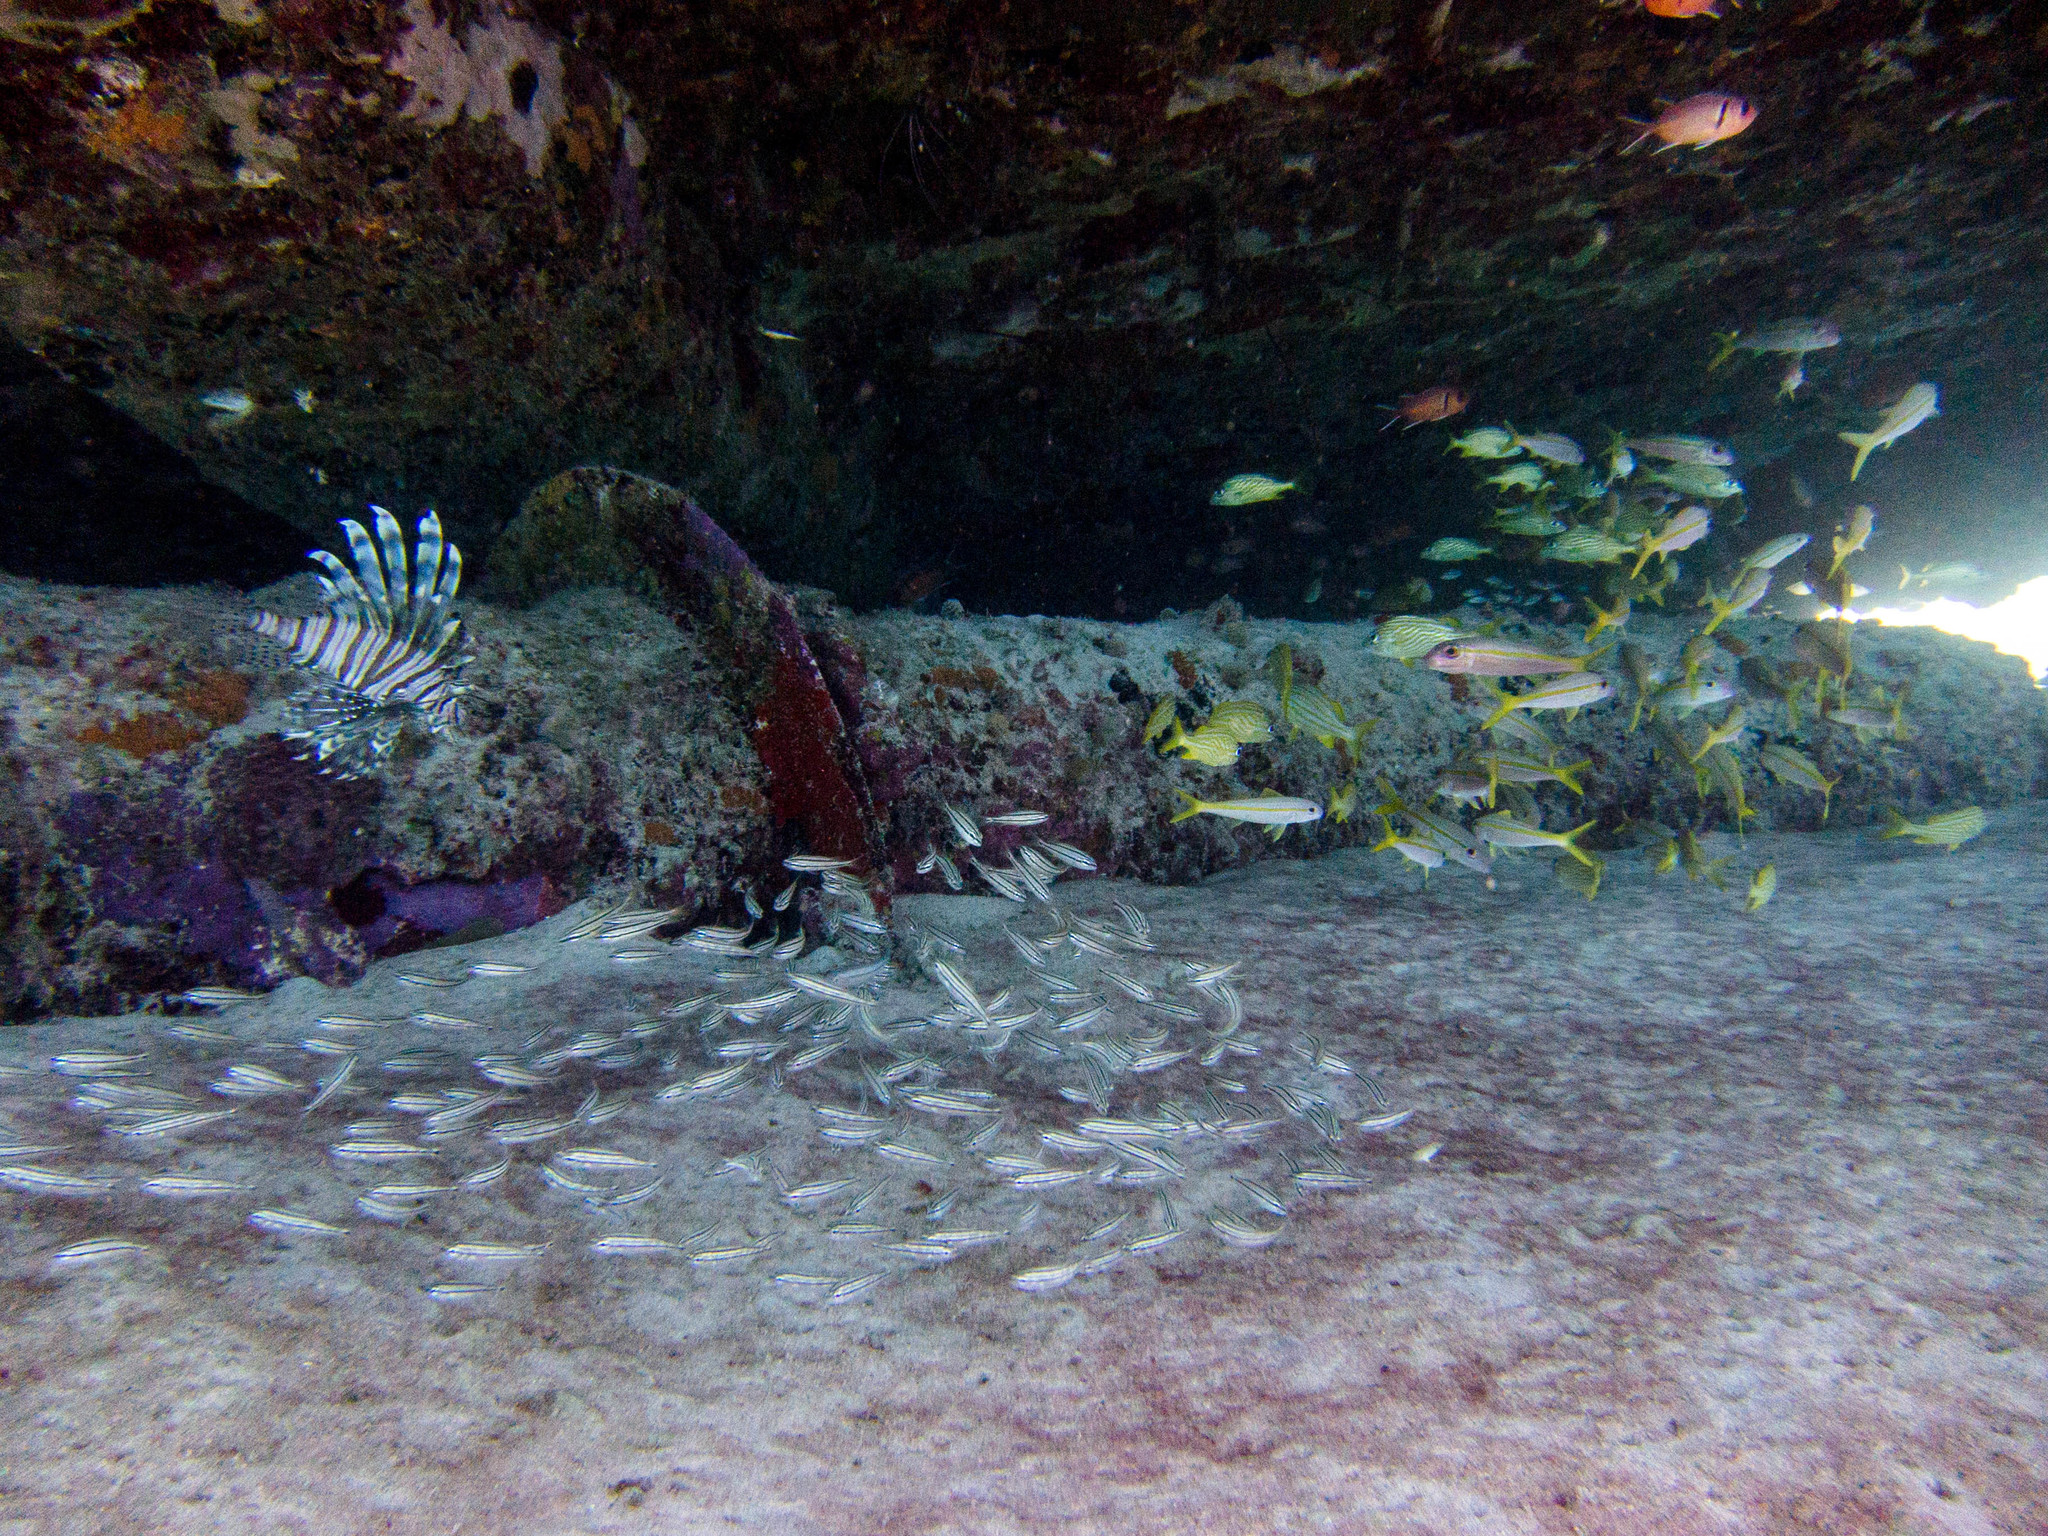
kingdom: Animalia
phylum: Chordata
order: Scorpaeniformes
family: Scorpaenidae
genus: Pterois
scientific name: Pterois volitans
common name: Lionfish
